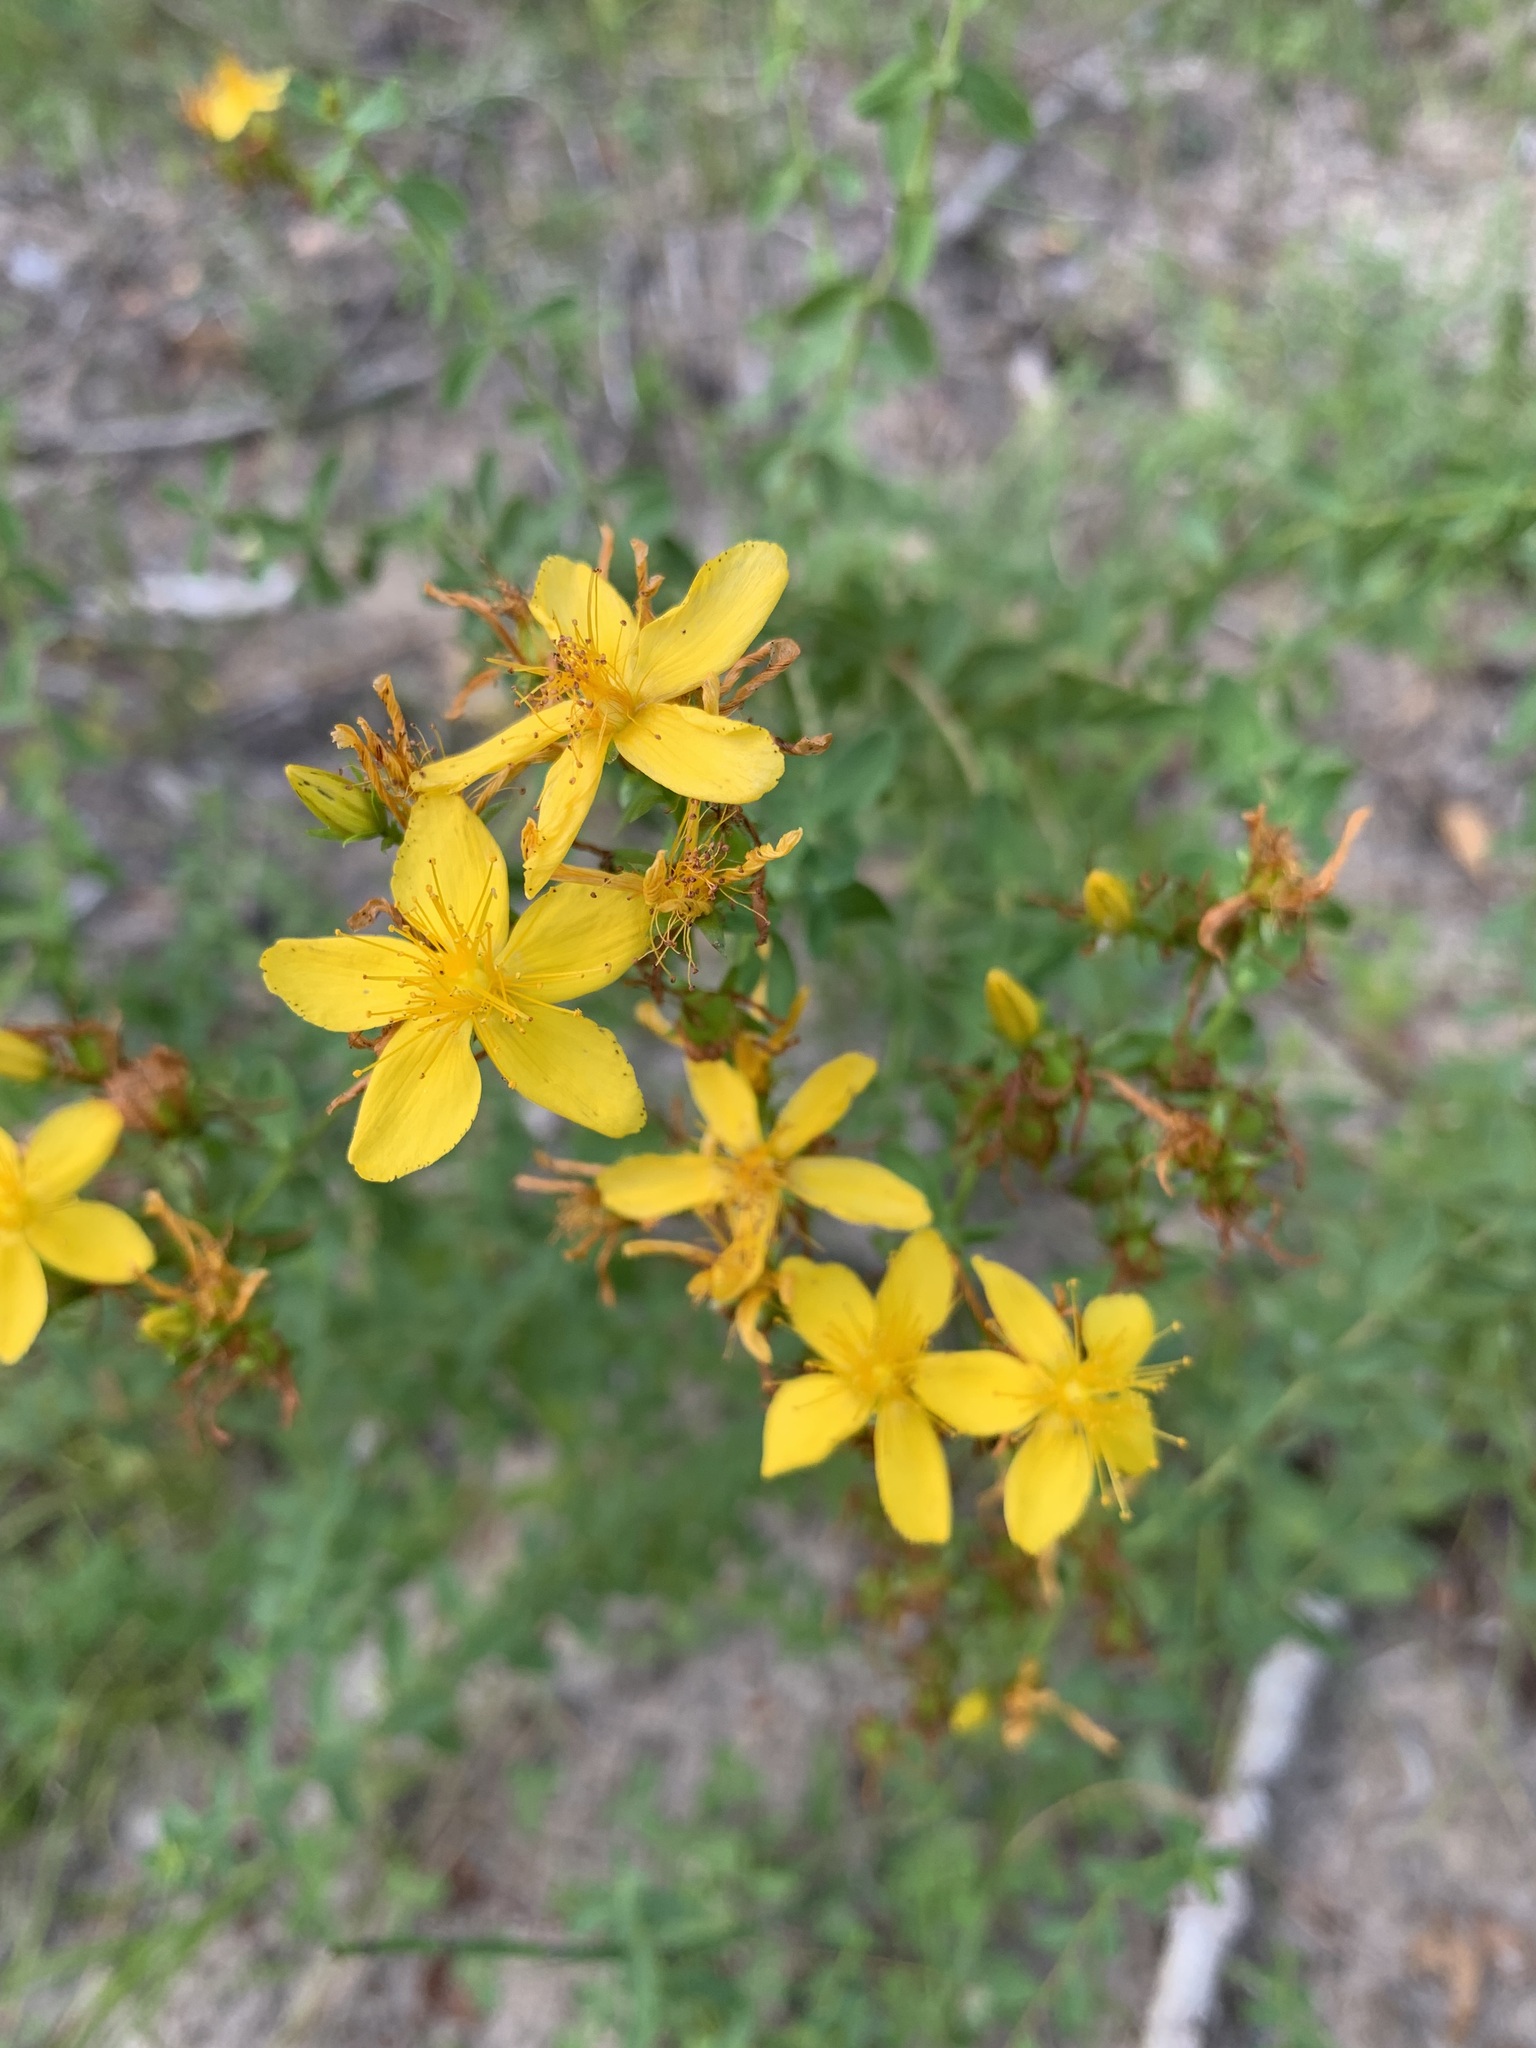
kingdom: Plantae
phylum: Tracheophyta
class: Magnoliopsida
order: Malpighiales
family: Hypericaceae
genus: Hypericum
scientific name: Hypericum perforatum
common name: Common st. johnswort
